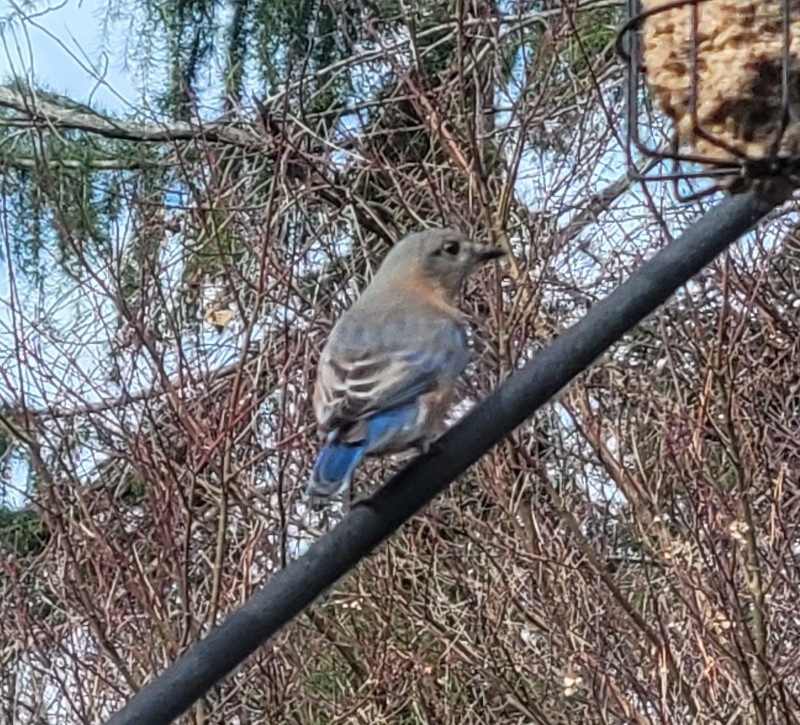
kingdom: Animalia
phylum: Chordata
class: Aves
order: Passeriformes
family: Turdidae
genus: Sialia
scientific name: Sialia sialis
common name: Eastern bluebird
